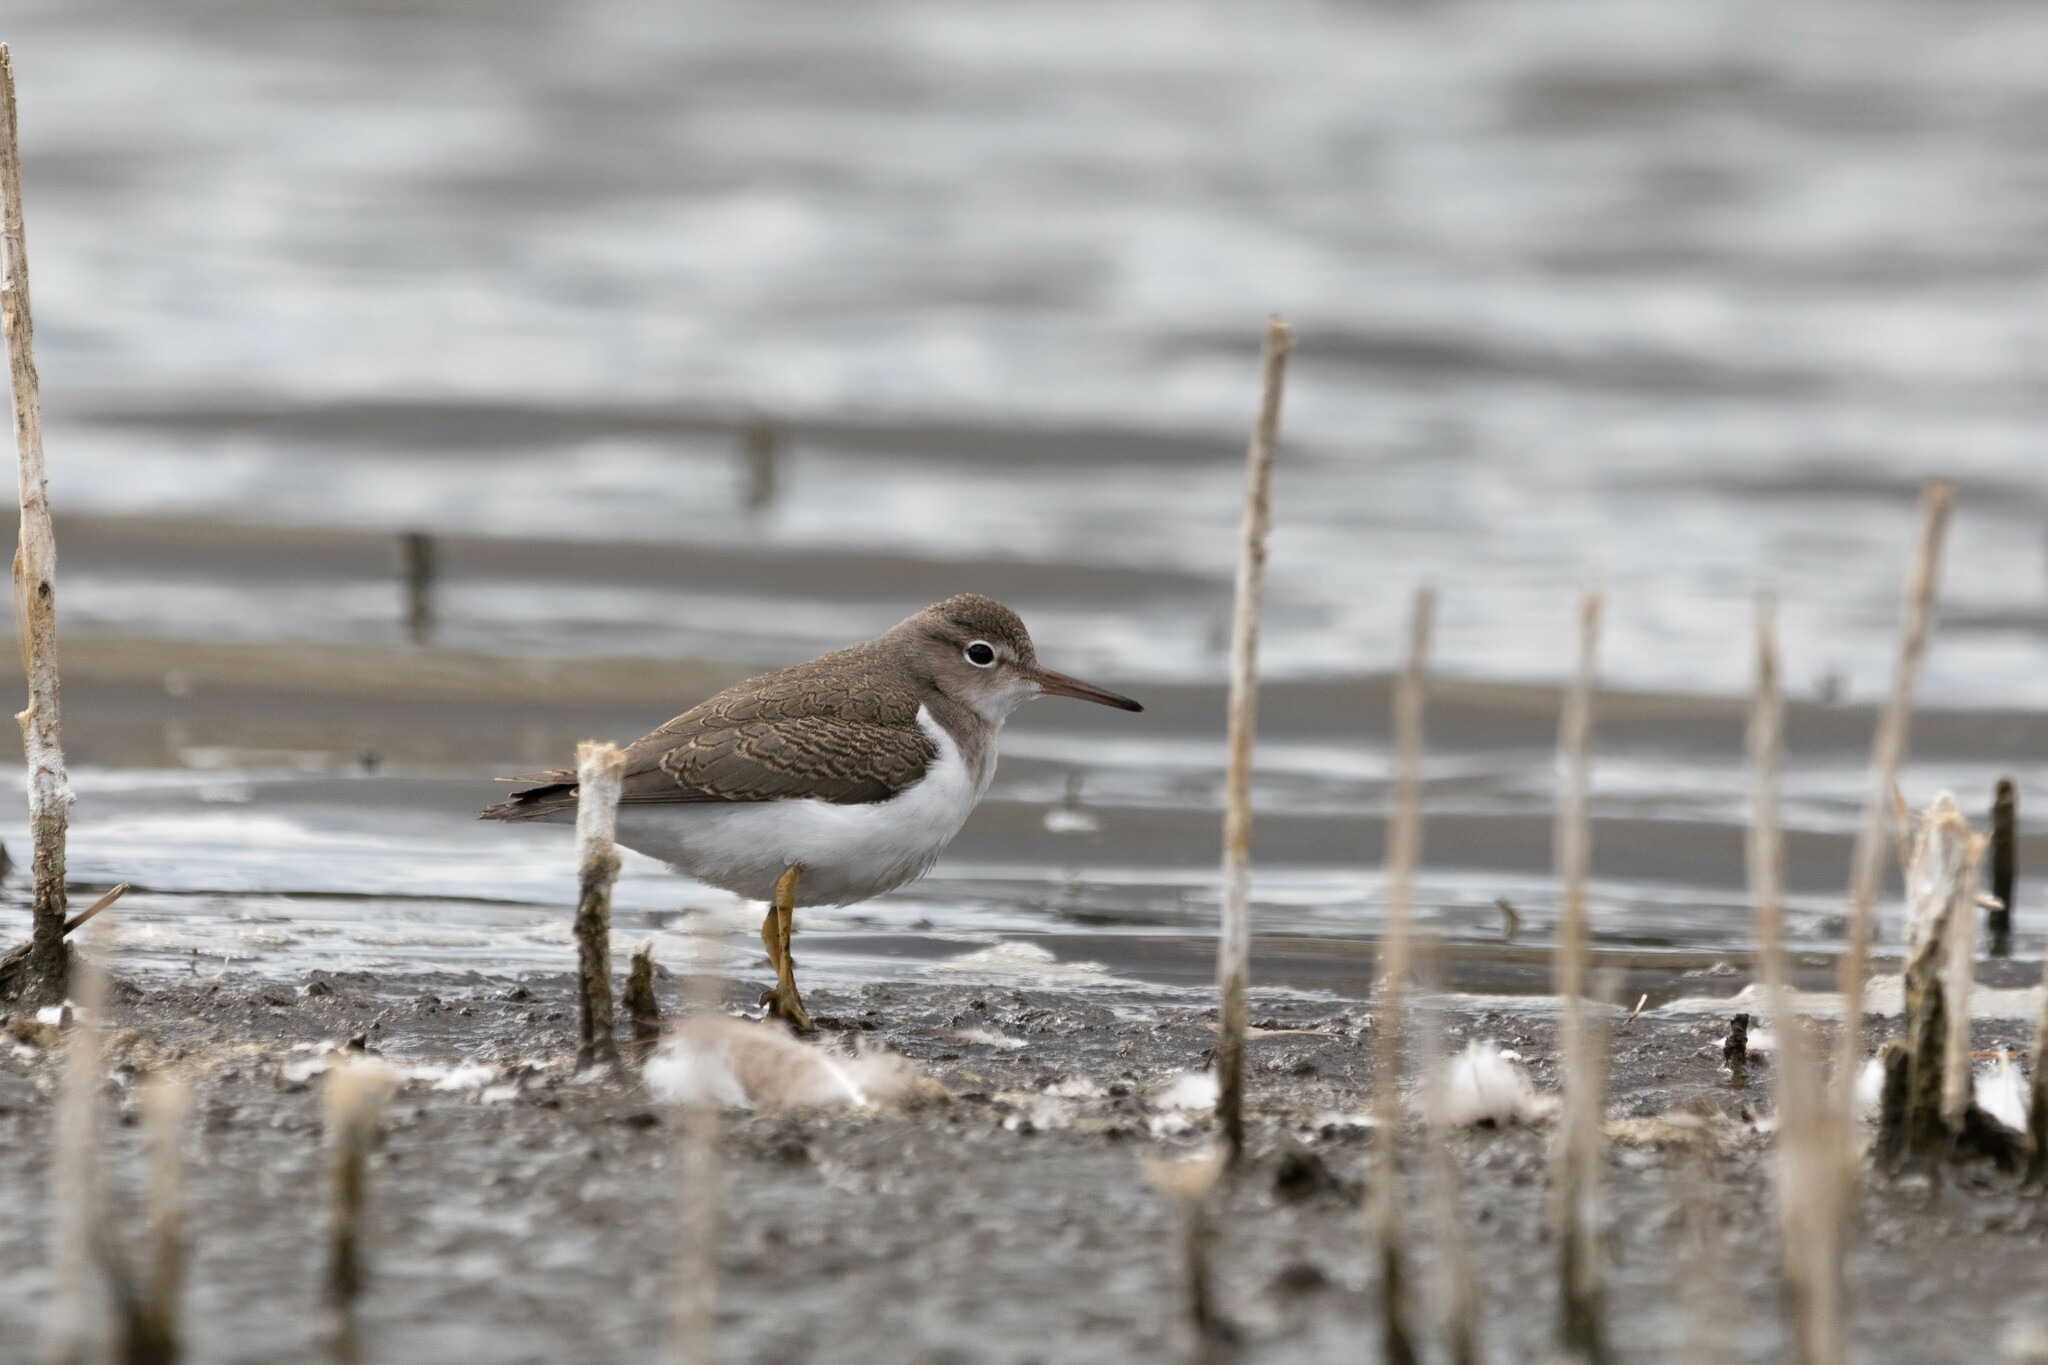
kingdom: Animalia
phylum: Chordata
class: Aves
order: Charadriiformes
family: Scolopacidae
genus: Actitis
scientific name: Actitis macularius
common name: Spotted sandpiper
